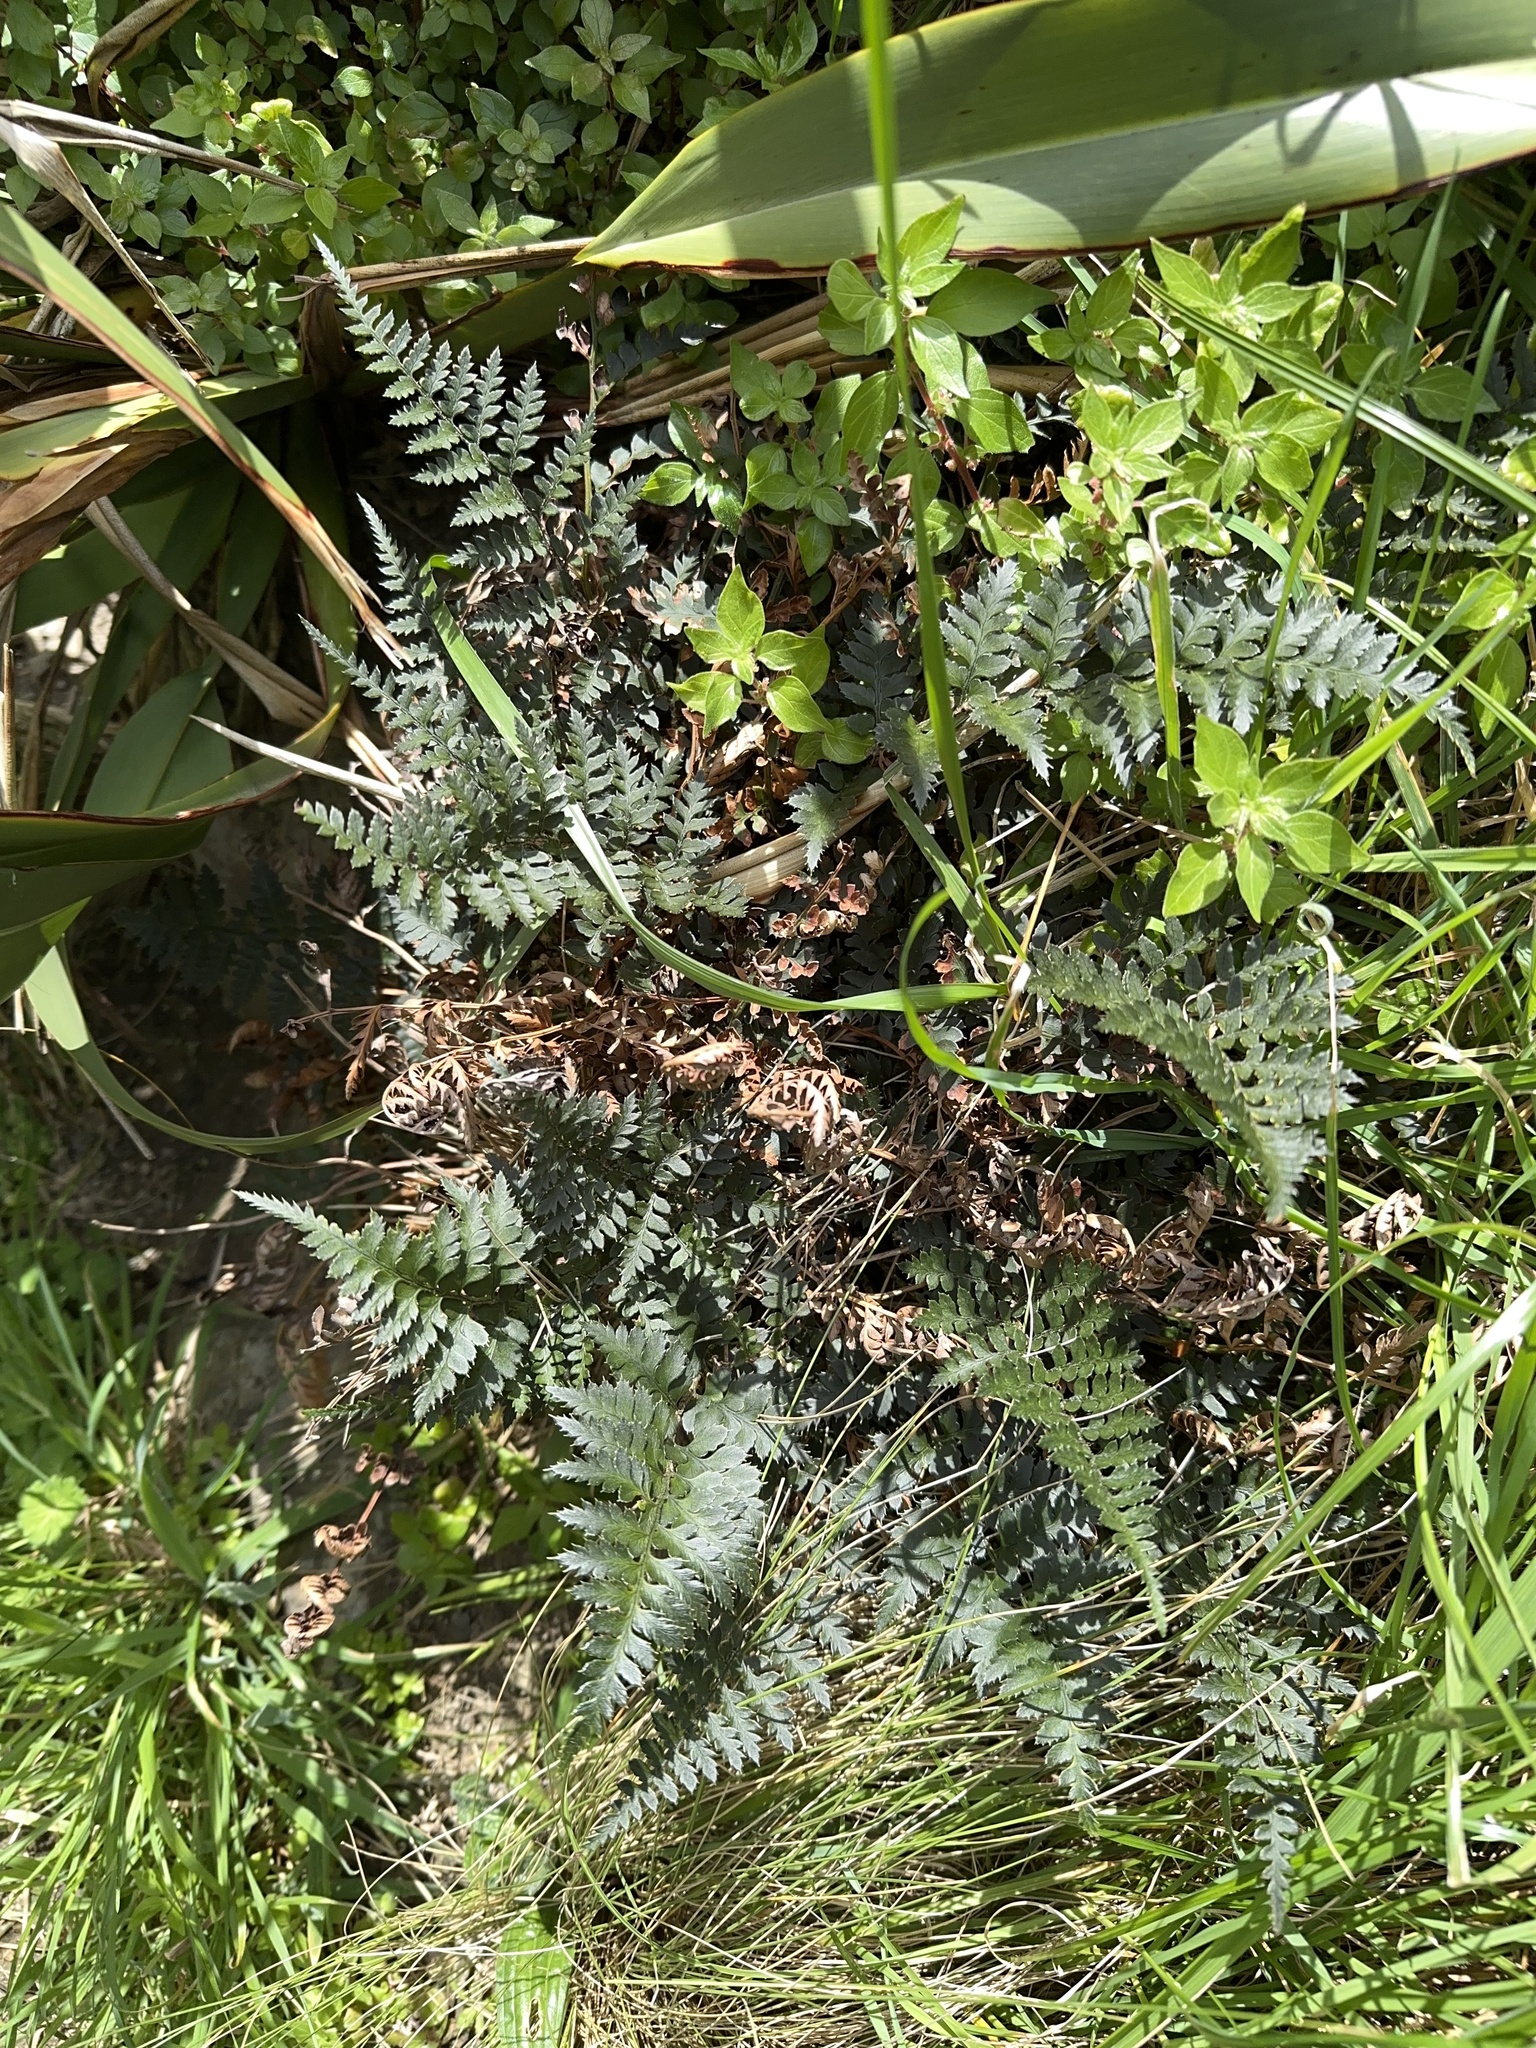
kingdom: Plantae
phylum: Tracheophyta
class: Polypodiopsida
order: Polypodiales
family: Dryopteridaceae
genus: Polystichum
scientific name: Polystichum oculatum
